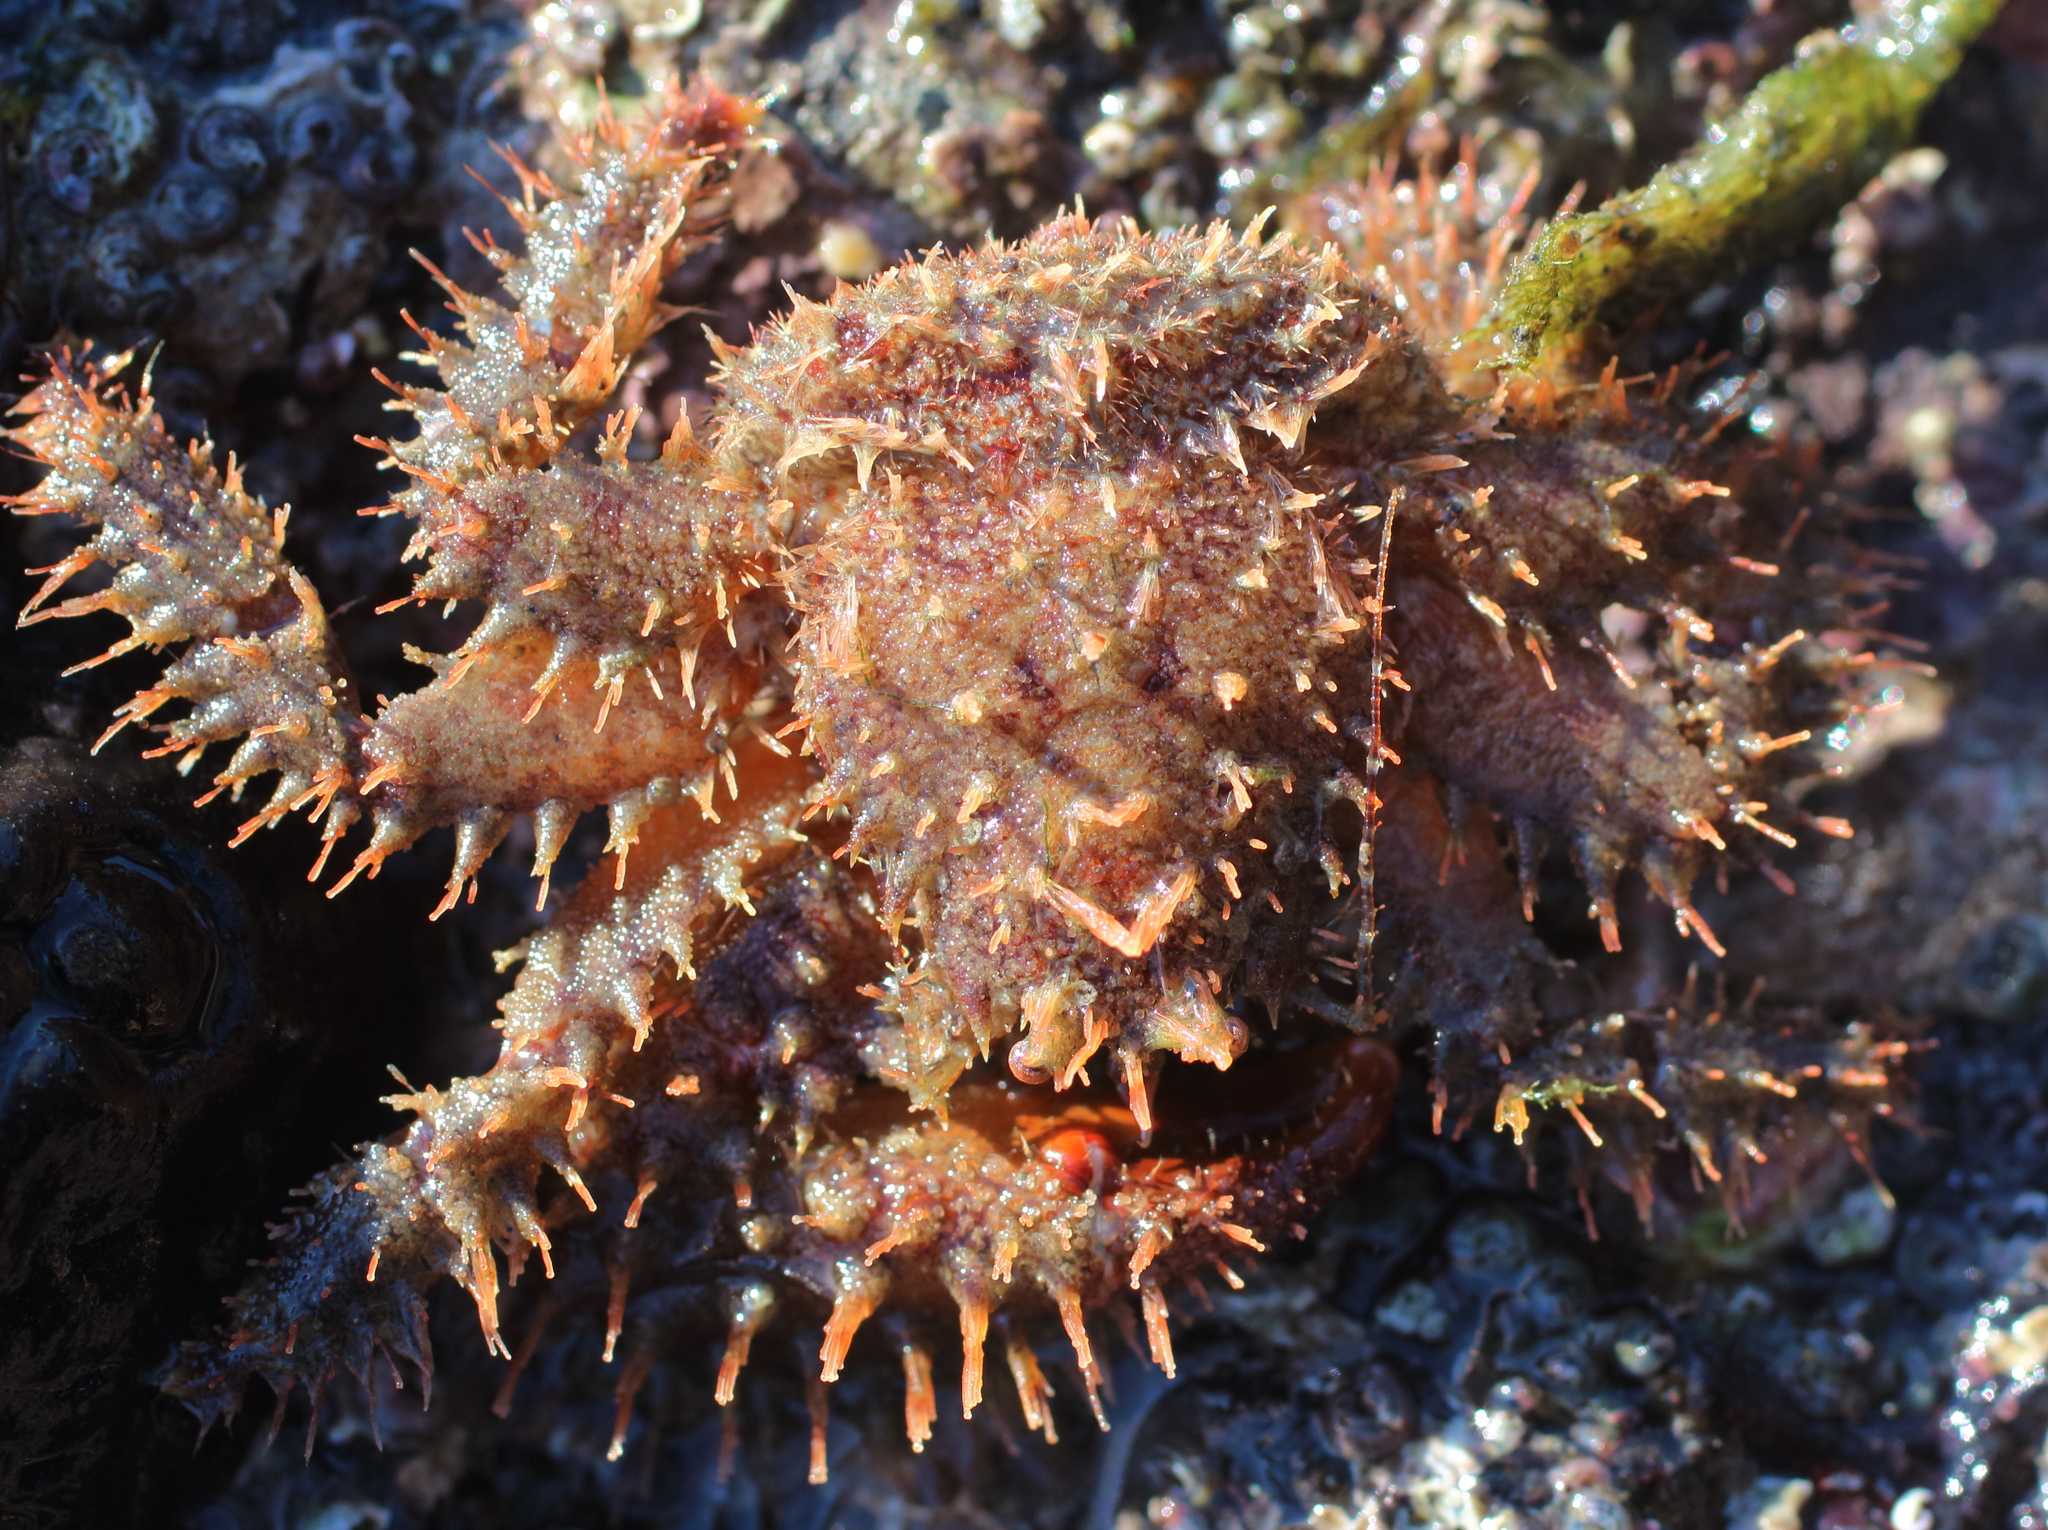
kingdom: Animalia
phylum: Arthropoda
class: Malacostraca
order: Decapoda
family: Hapalogastridae
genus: Hapalogaster
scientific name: Hapalogaster mertensii
